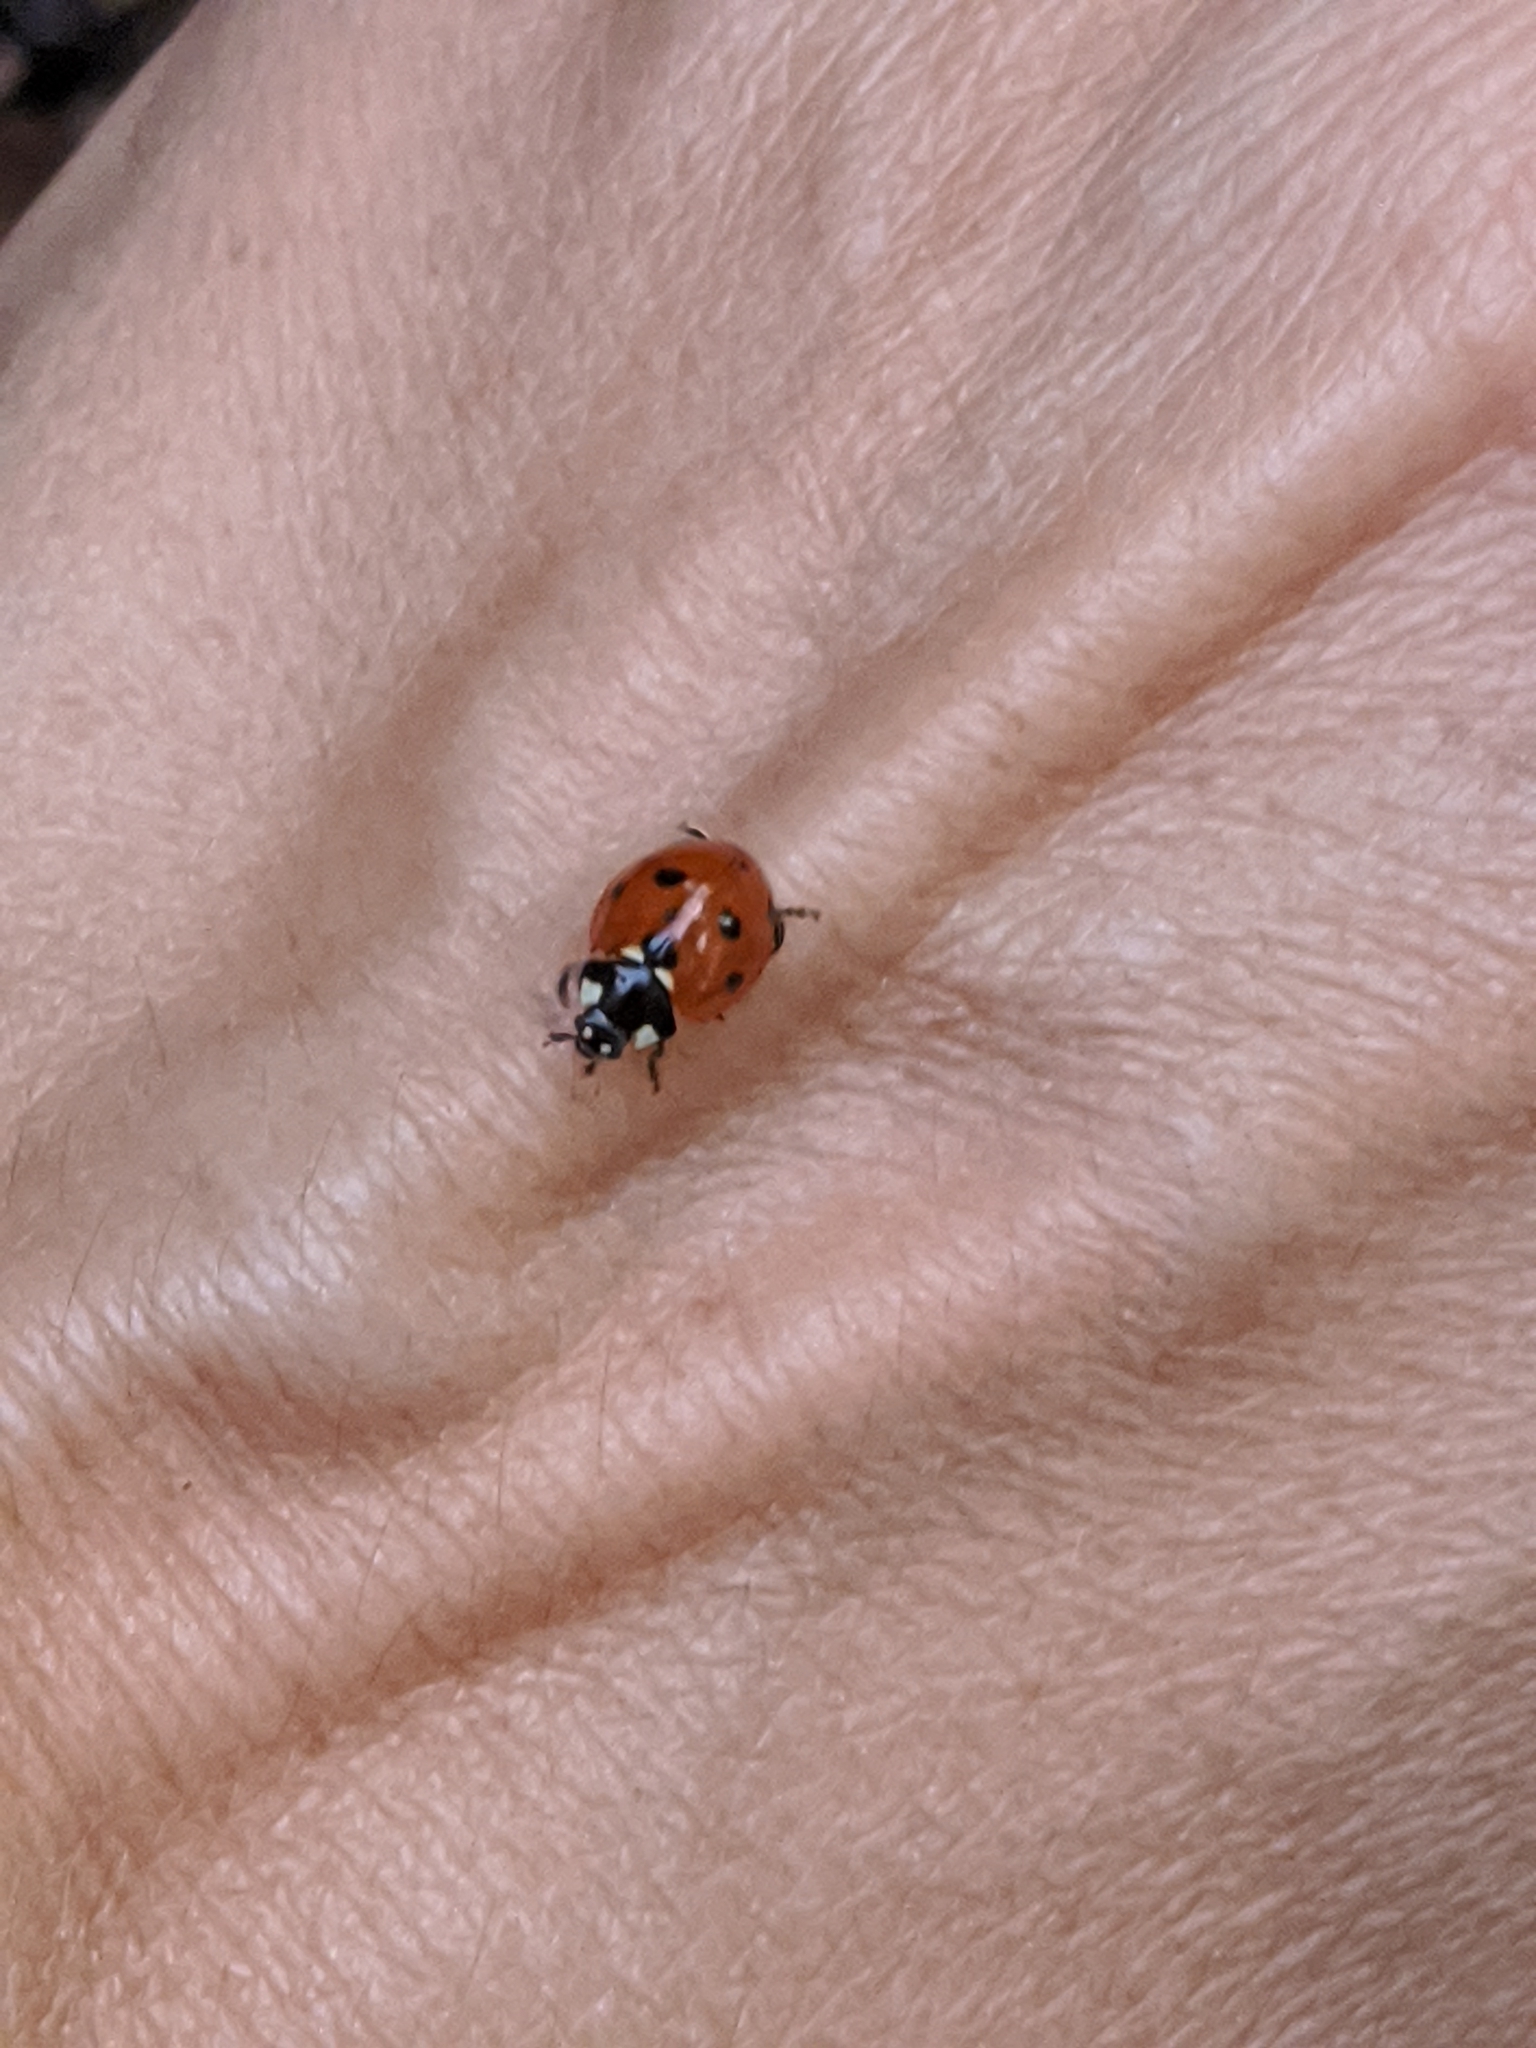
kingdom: Animalia
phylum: Arthropoda
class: Insecta
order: Coleoptera
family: Coccinellidae
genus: Coccinella
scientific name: Coccinella septempunctata
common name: Sevenspotted lady beetle
